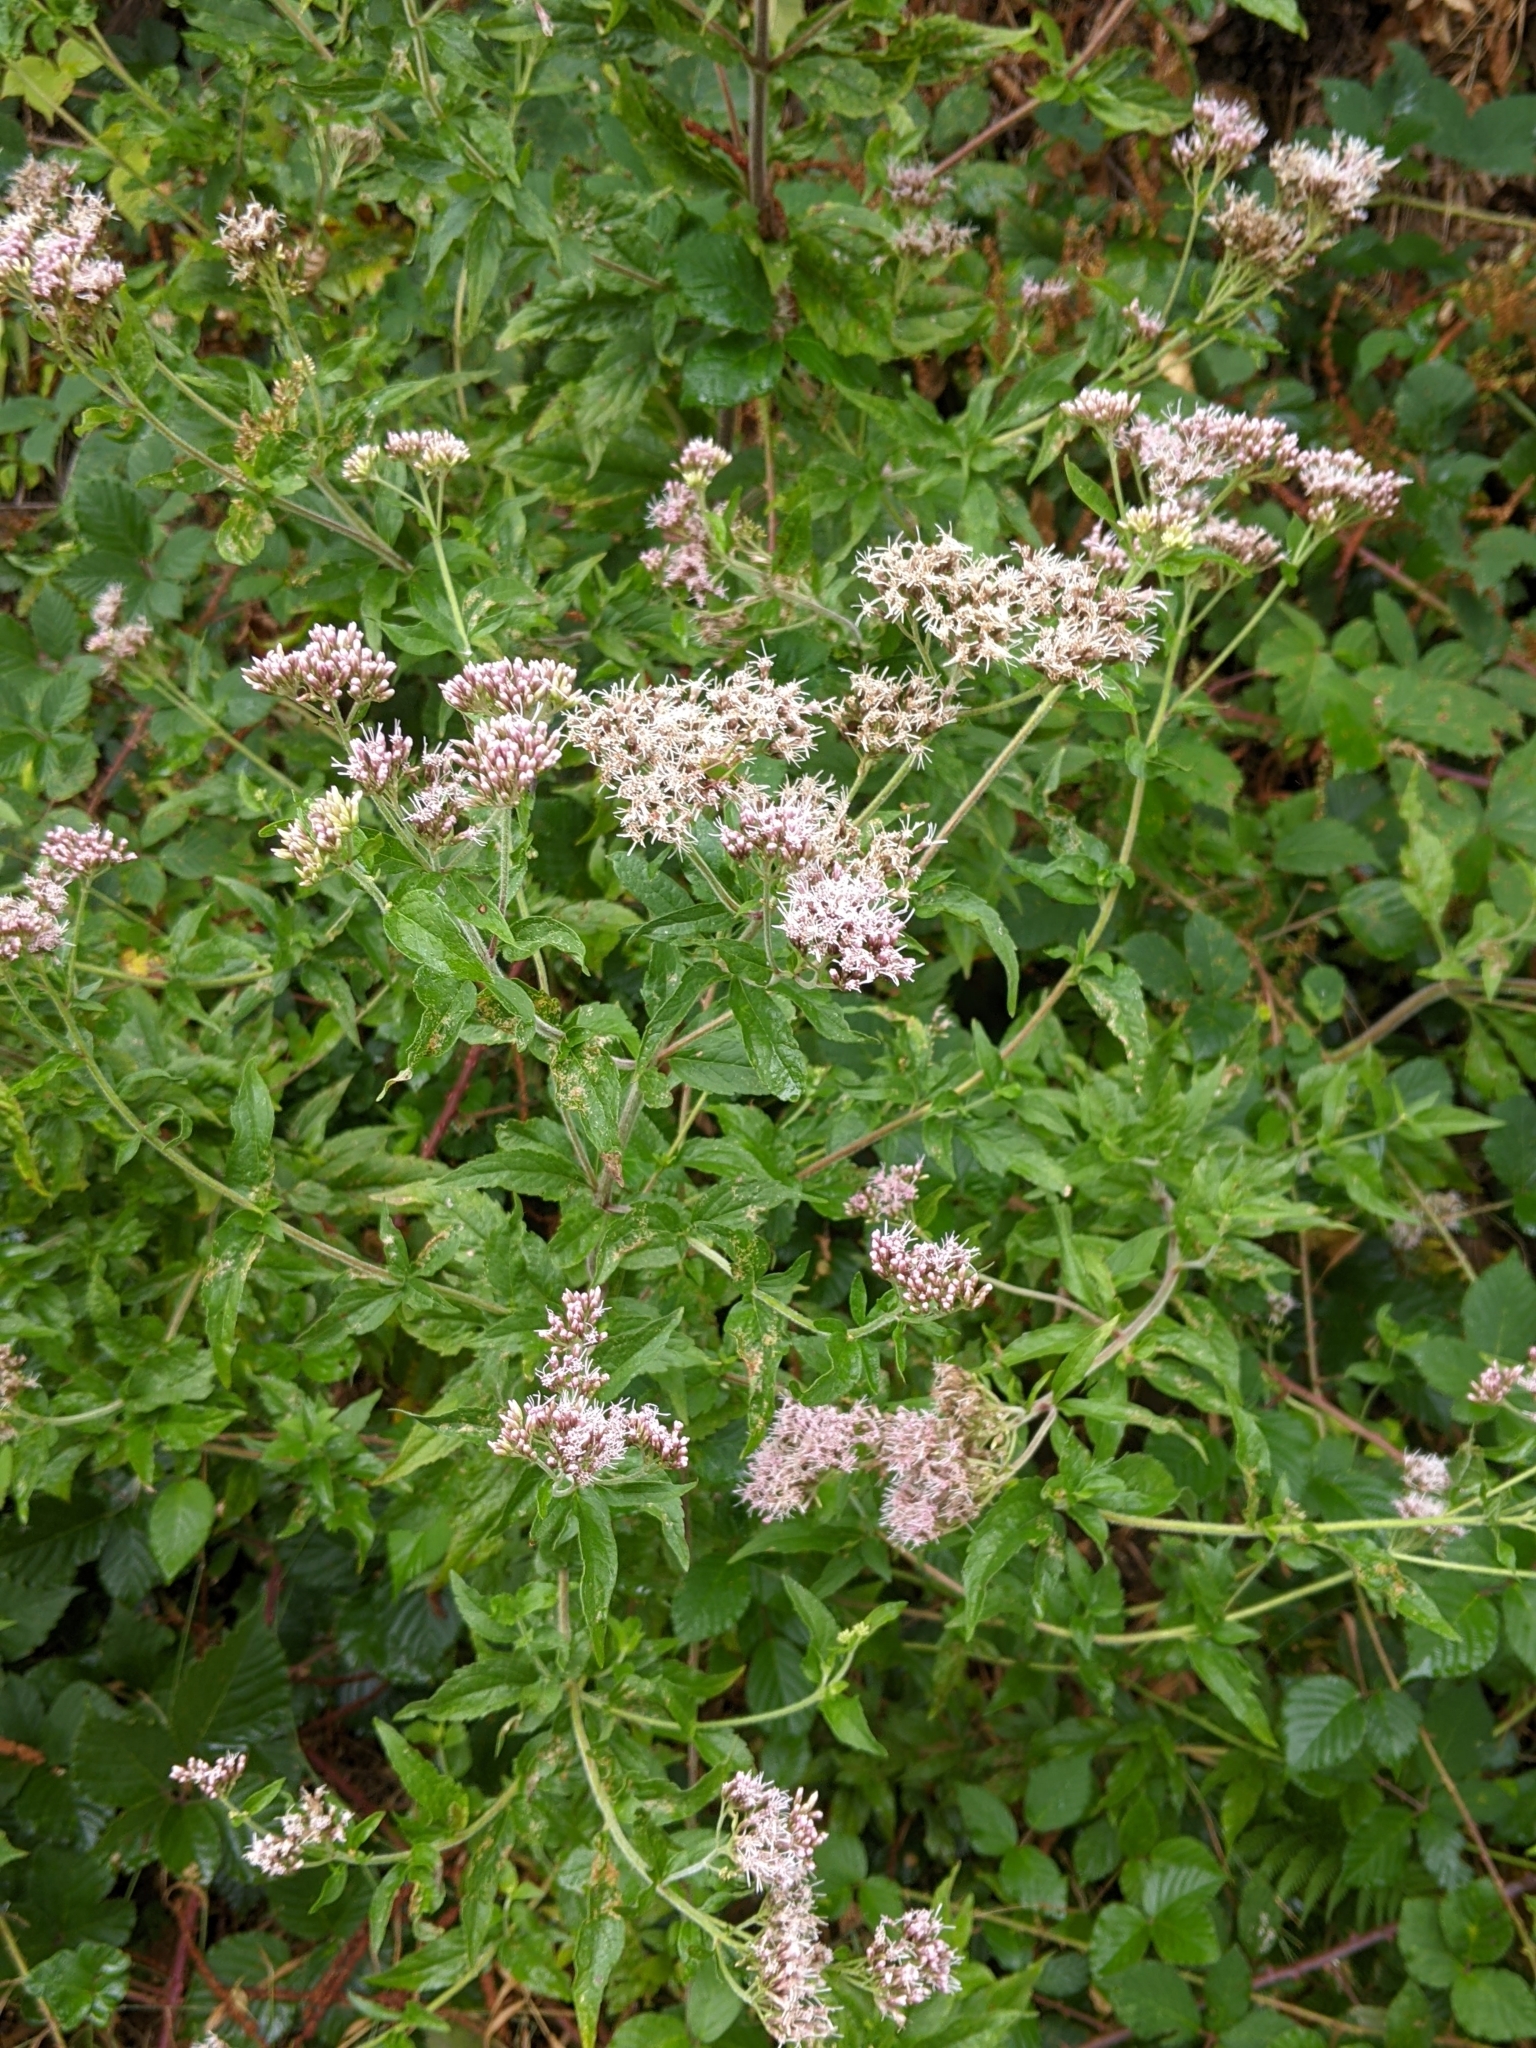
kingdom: Plantae
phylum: Tracheophyta
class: Magnoliopsida
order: Asterales
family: Asteraceae
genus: Eupatorium
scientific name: Eupatorium cannabinum
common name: Hemp-agrimony
